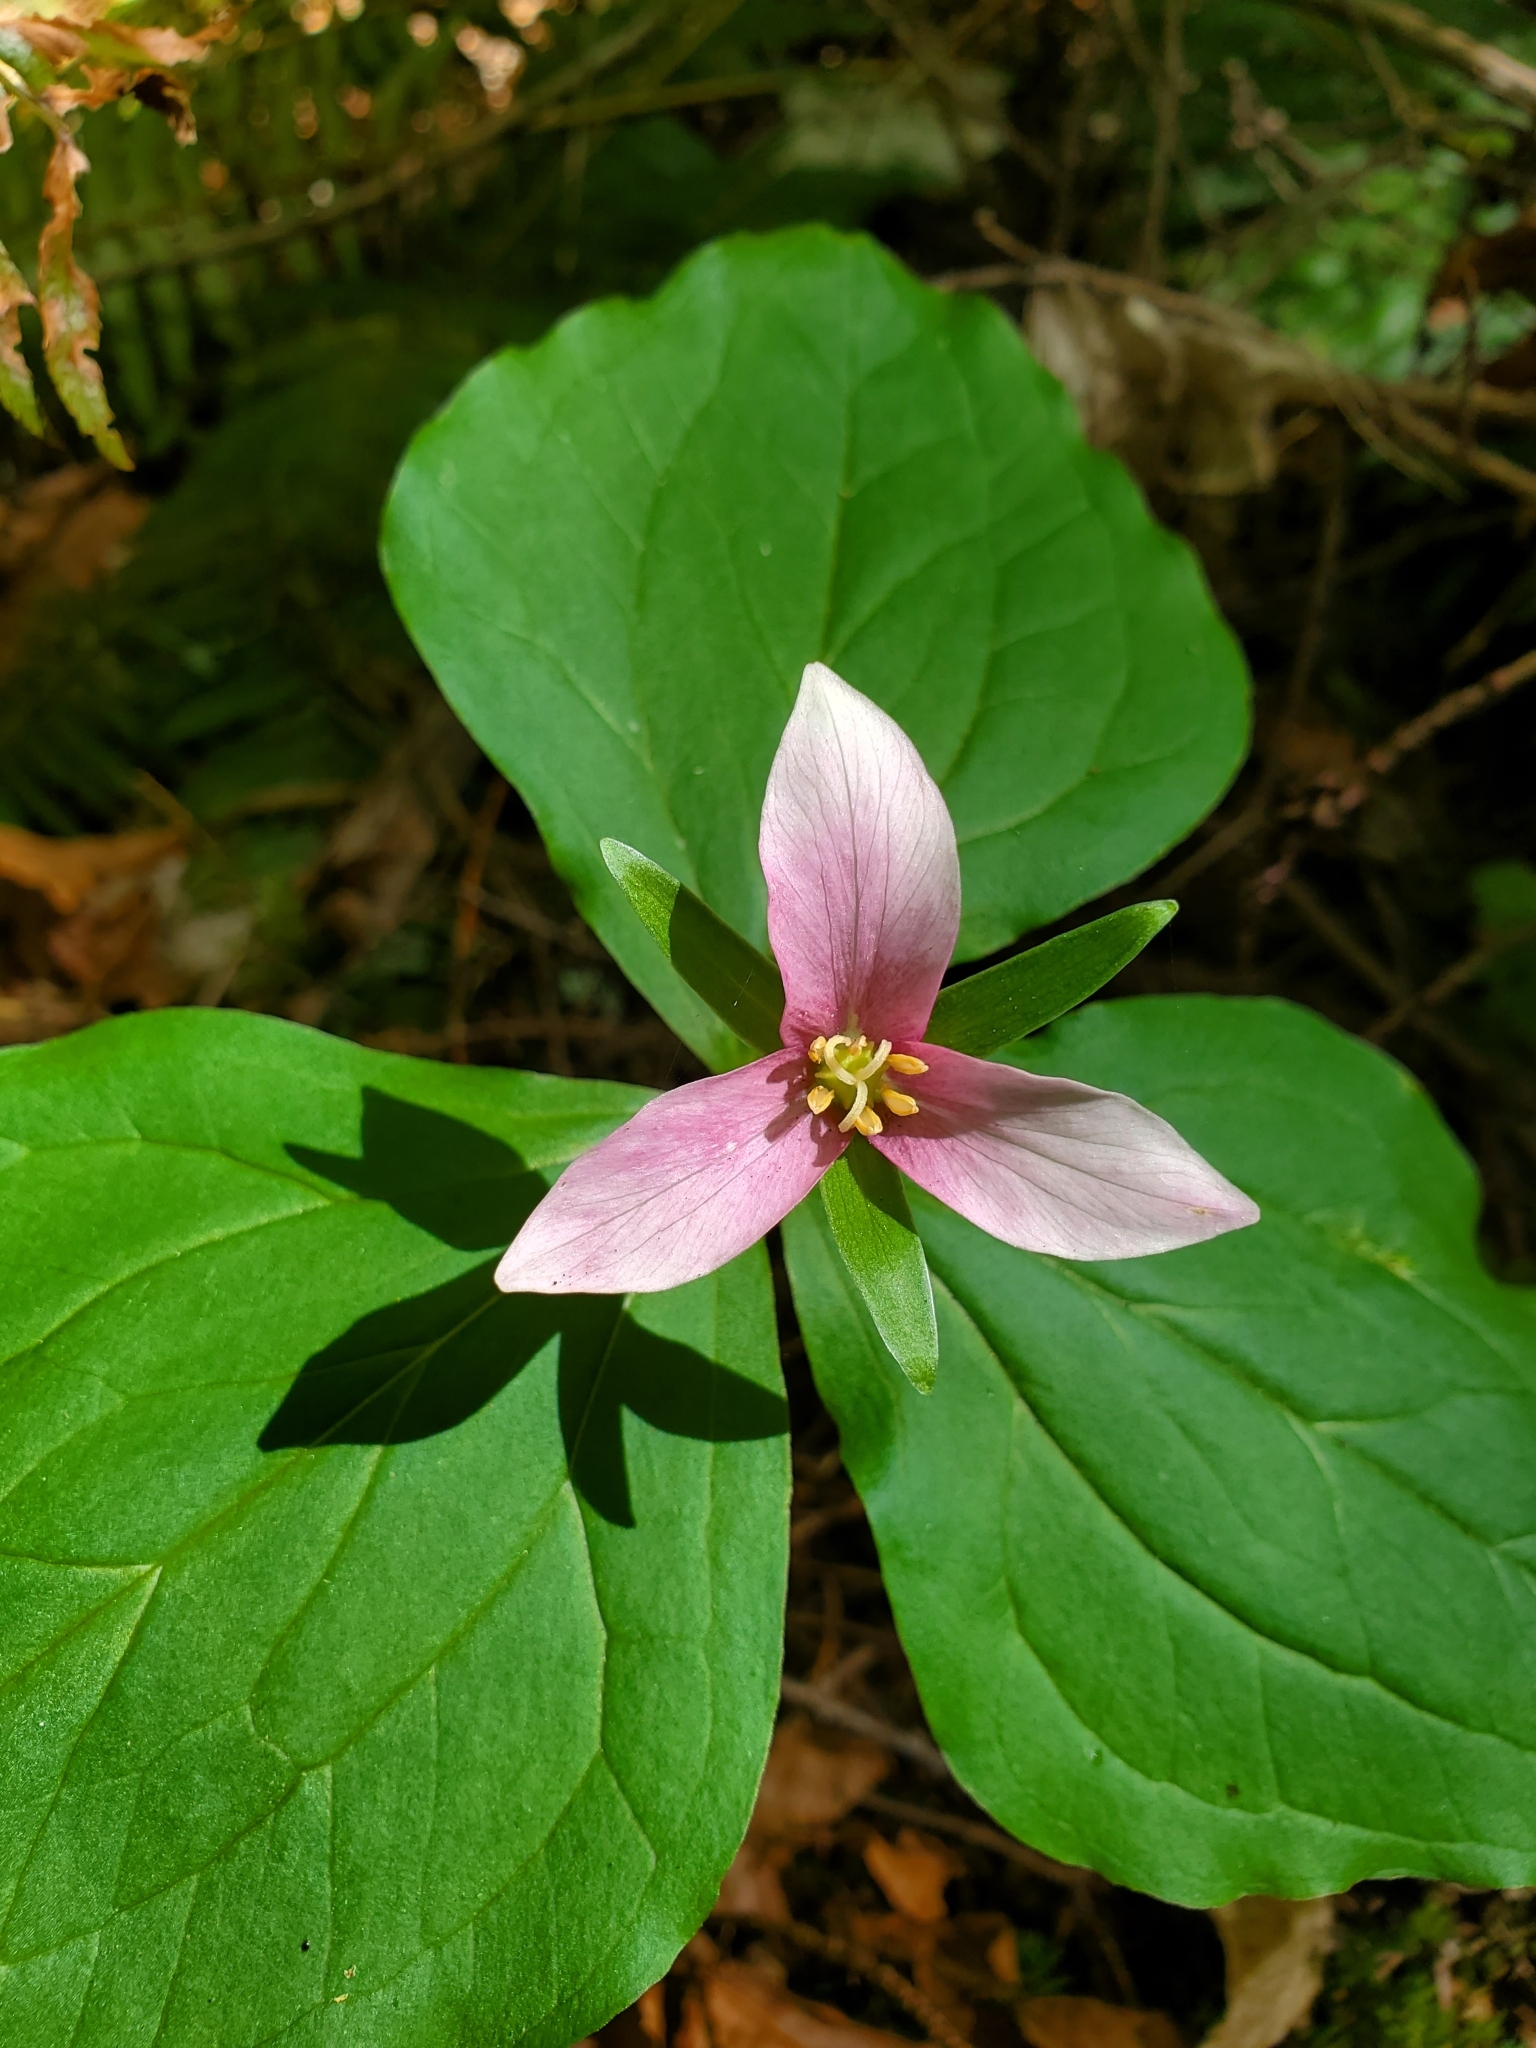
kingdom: Plantae
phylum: Tracheophyta
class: Liliopsida
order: Liliales
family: Melanthiaceae
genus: Trillium
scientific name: Trillium ovatum
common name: Pacific trillium
